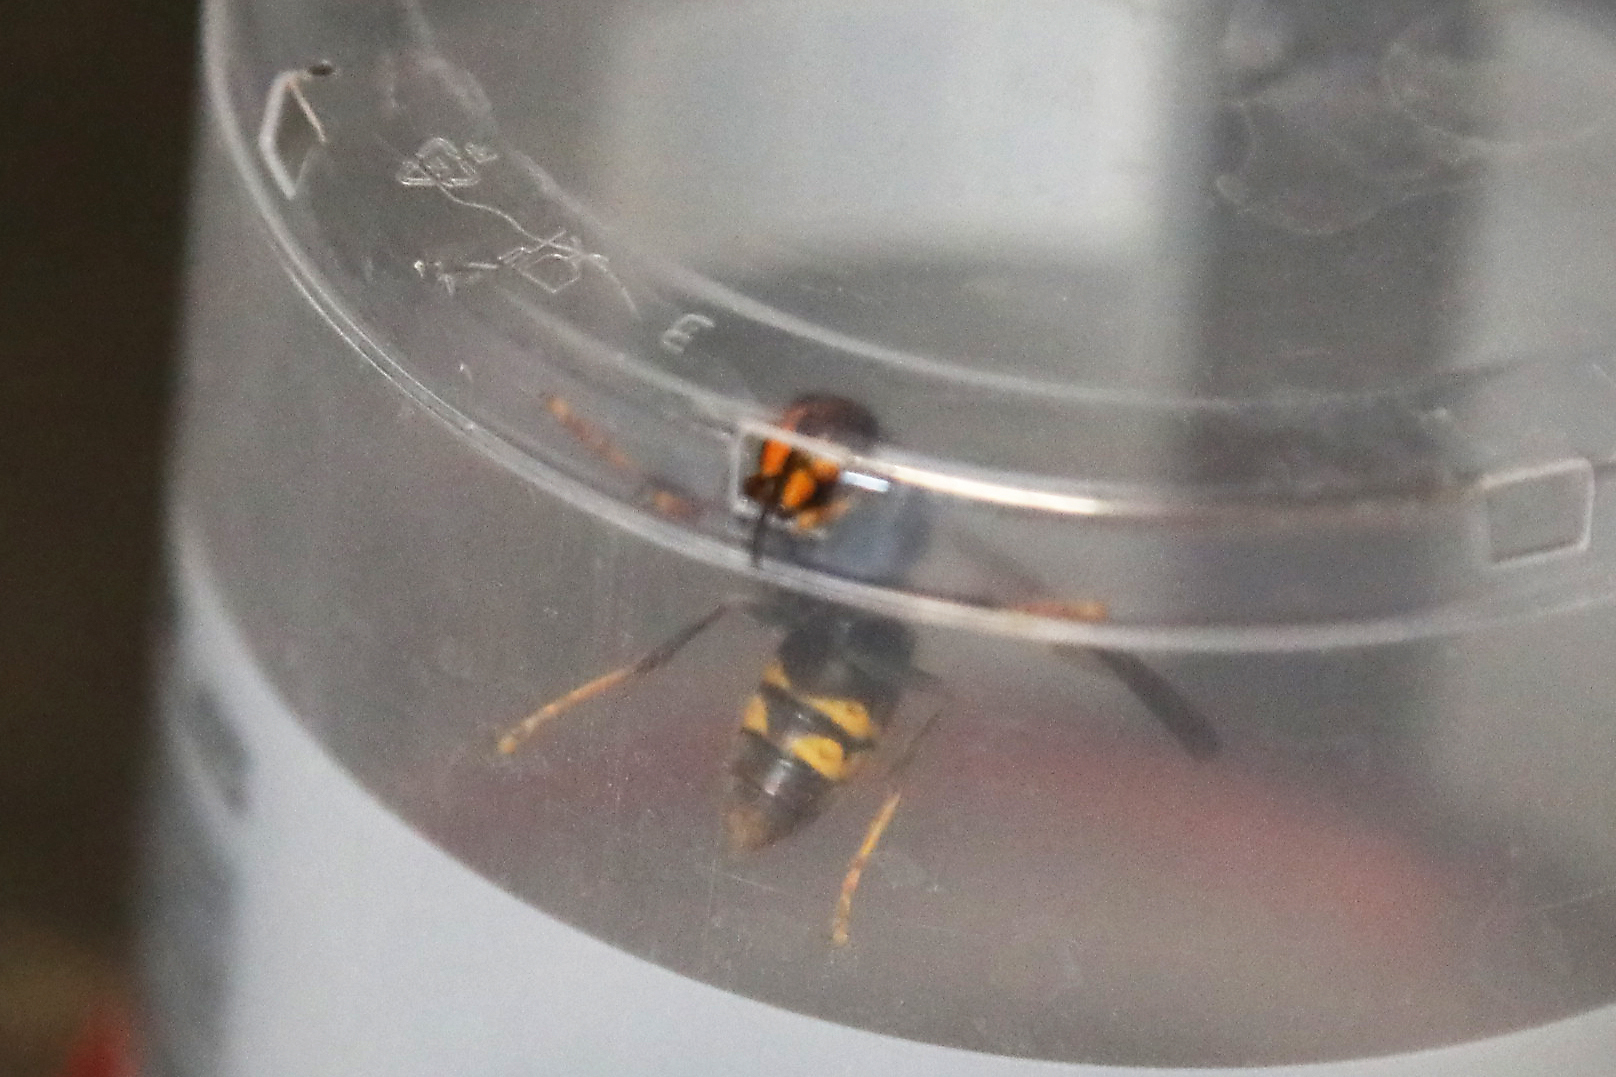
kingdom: Animalia
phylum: Arthropoda
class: Insecta
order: Hymenoptera
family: Vespidae
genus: Vespa
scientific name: Vespa velutina
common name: Asian hornet
